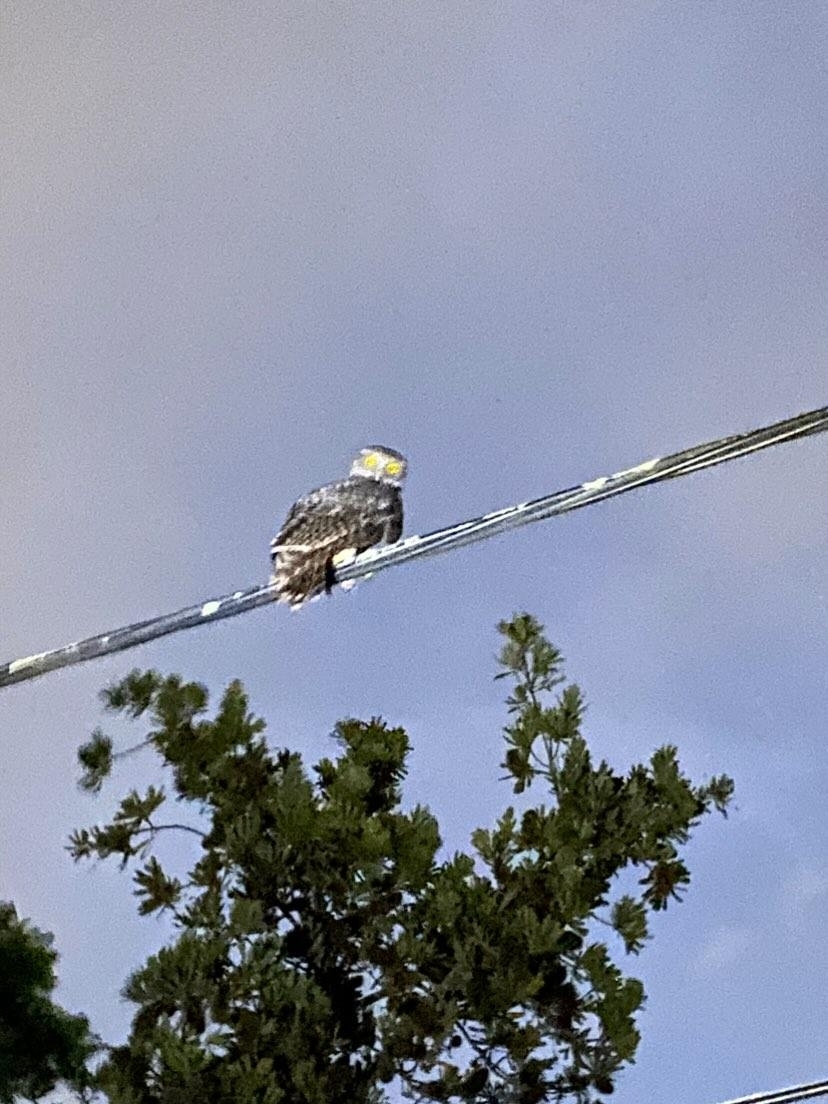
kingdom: Animalia
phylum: Chordata
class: Aves
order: Strigiformes
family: Strigidae
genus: Ninox
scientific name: Ninox strenua
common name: Powerful owl
